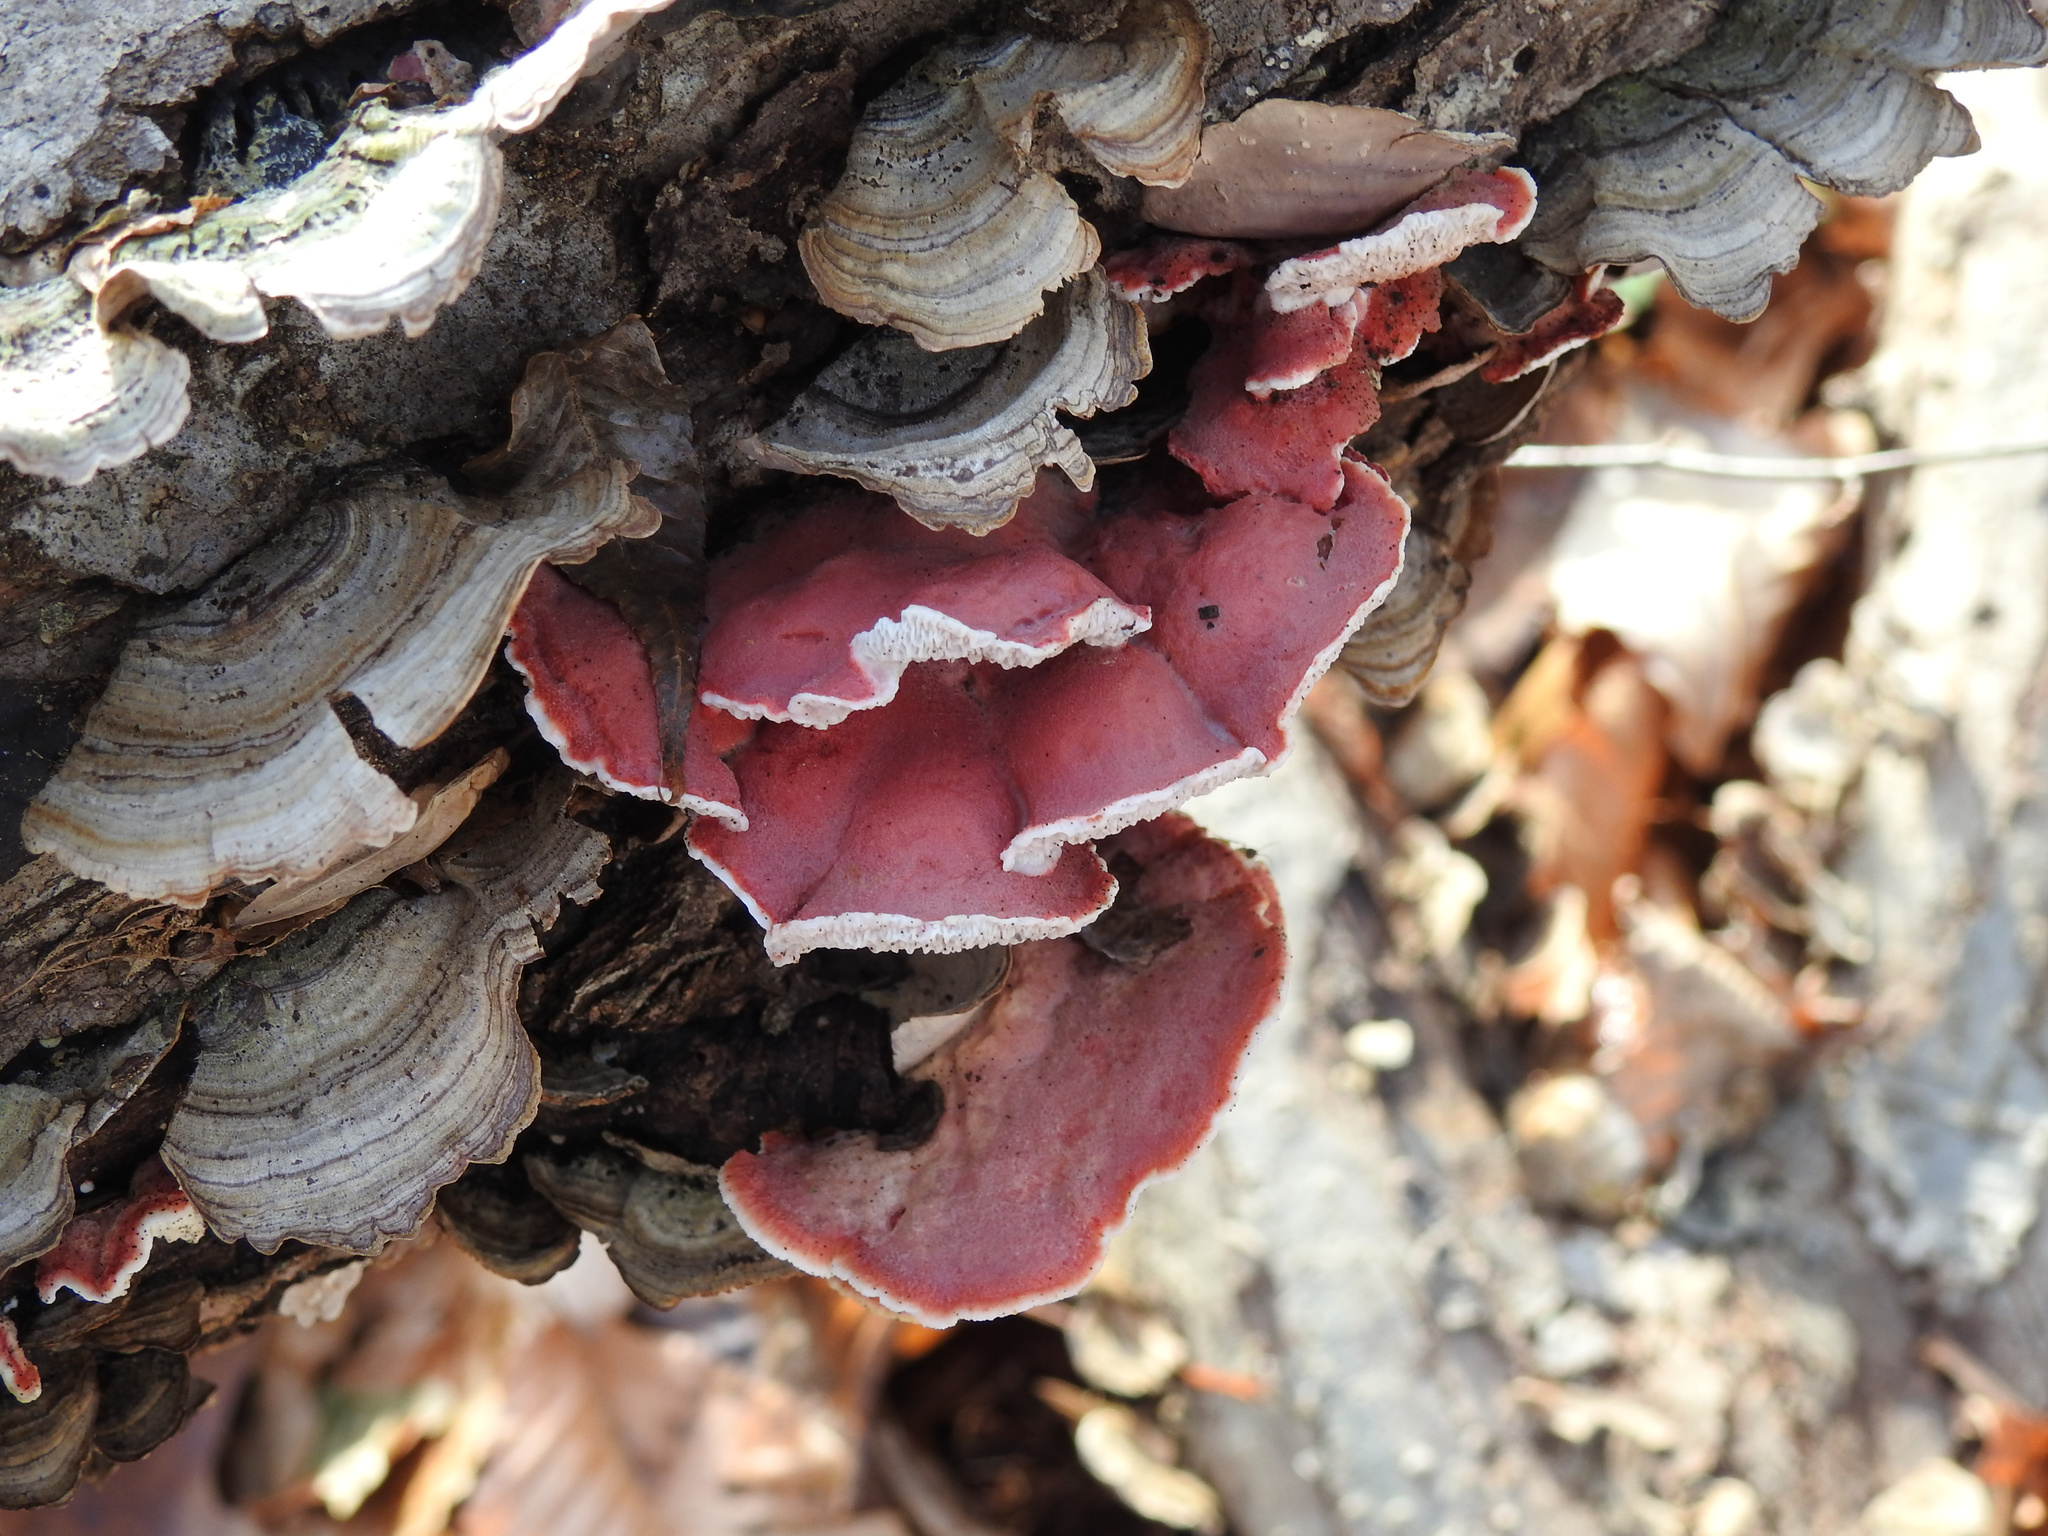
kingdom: Fungi
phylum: Basidiomycota
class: Agaricomycetes
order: Polyporales
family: Irpicaceae
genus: Byssomerulius
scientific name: Byssomerulius incarnatus
